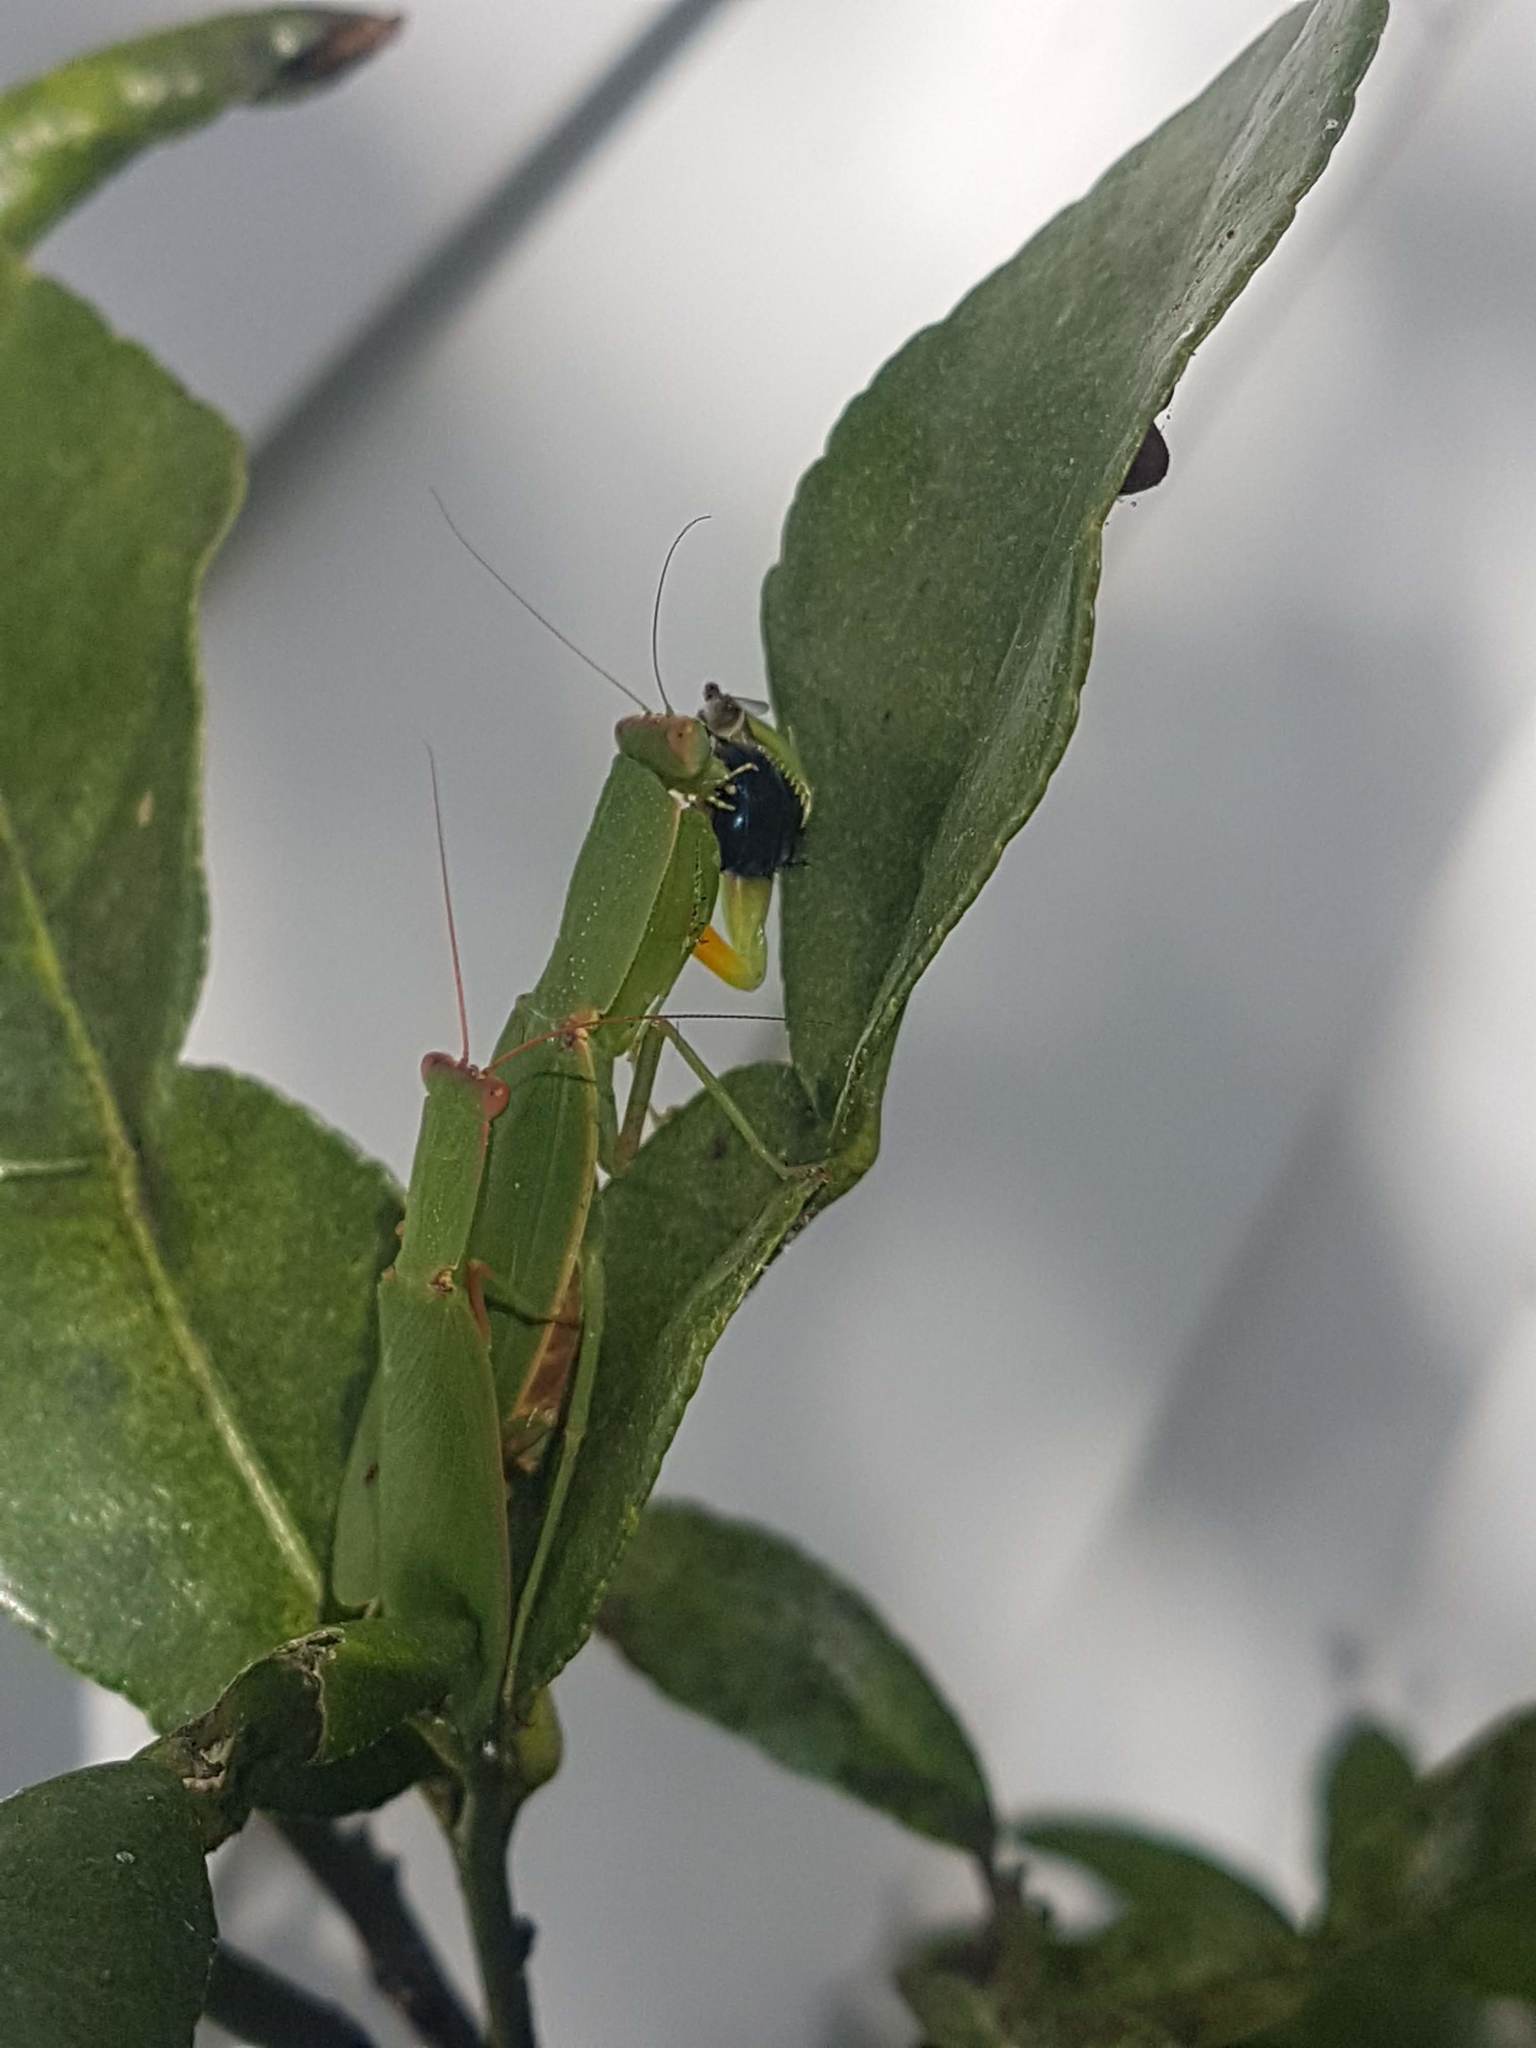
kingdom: Animalia
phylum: Arthropoda
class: Insecta
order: Mantodea
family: Mantidae
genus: Orthodera
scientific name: Orthodera novaezealandiae
